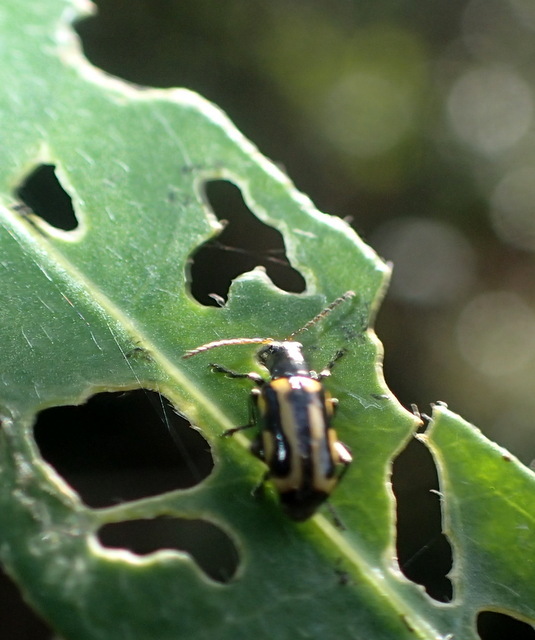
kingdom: Animalia
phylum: Arthropoda
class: Insecta
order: Coleoptera
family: Chrysomelidae
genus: Agasicles
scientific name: Agasicles hygrophila
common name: Alligatorweed flea beetle
